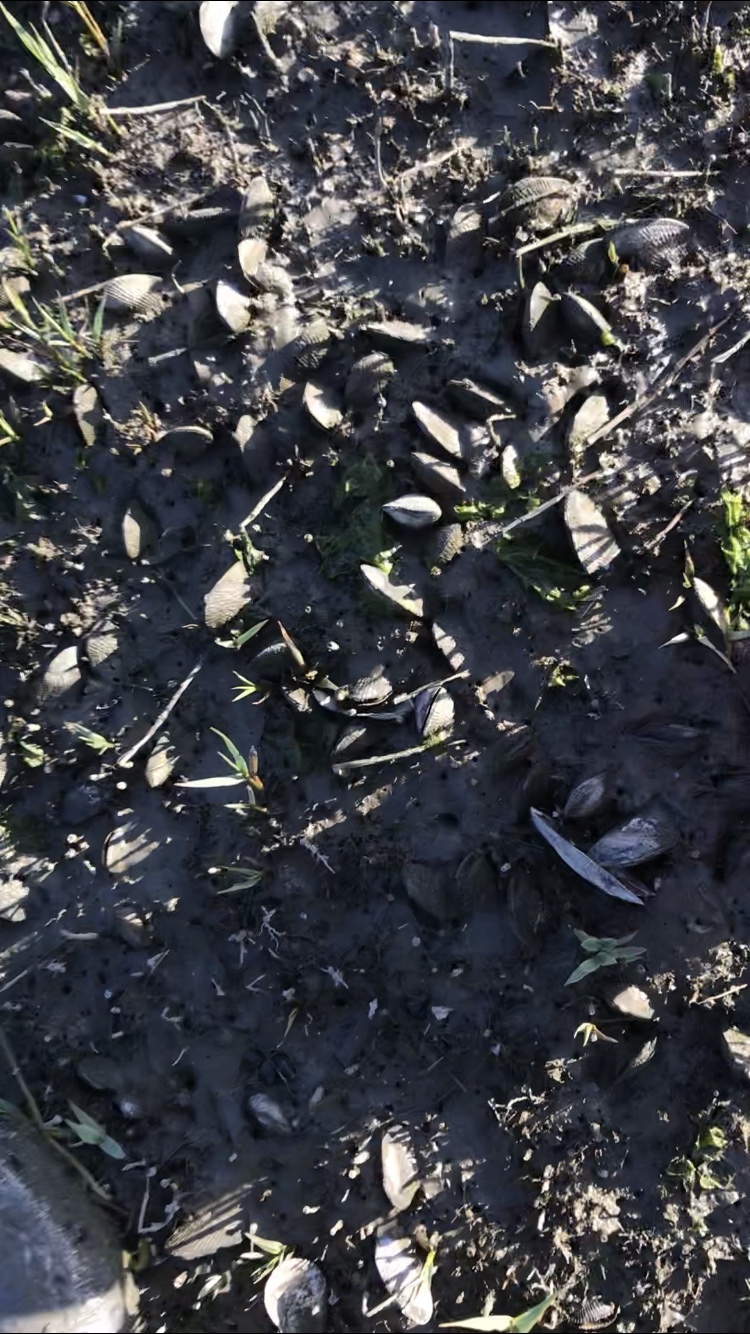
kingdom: Animalia
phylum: Mollusca
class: Bivalvia
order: Mytilida
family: Mytilidae
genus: Geukensia
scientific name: Geukensia demissa
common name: Ribbed mussel
